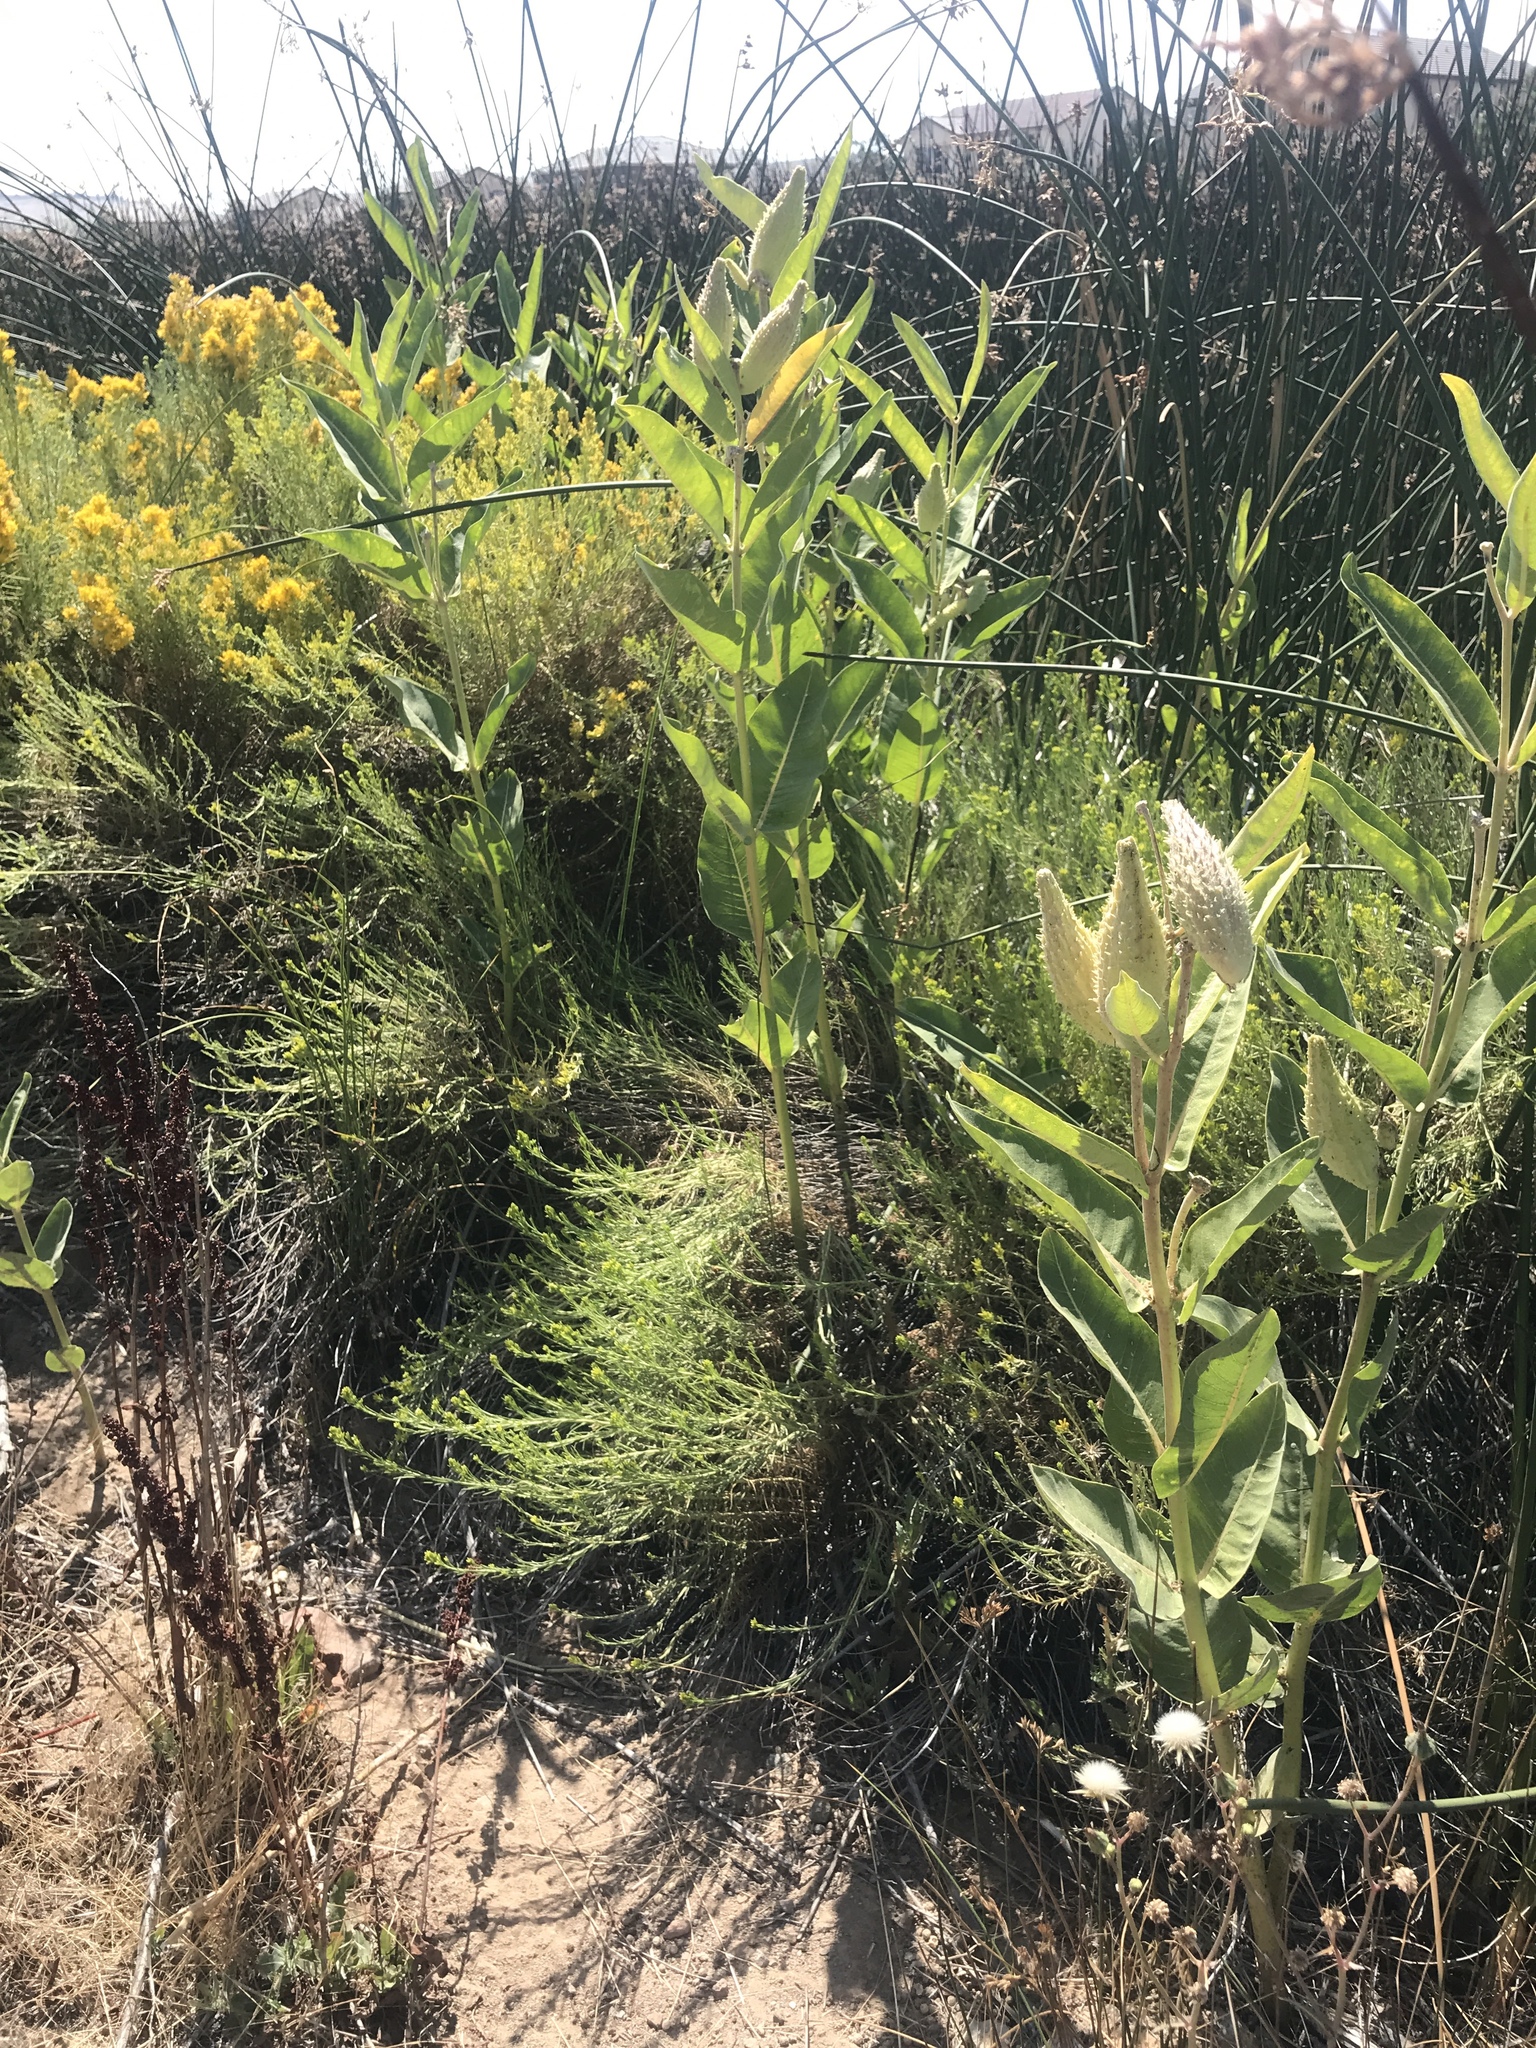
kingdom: Plantae
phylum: Tracheophyta
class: Magnoliopsida
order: Gentianales
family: Apocynaceae
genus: Asclepias
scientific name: Asclepias speciosa
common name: Showy milkweed
